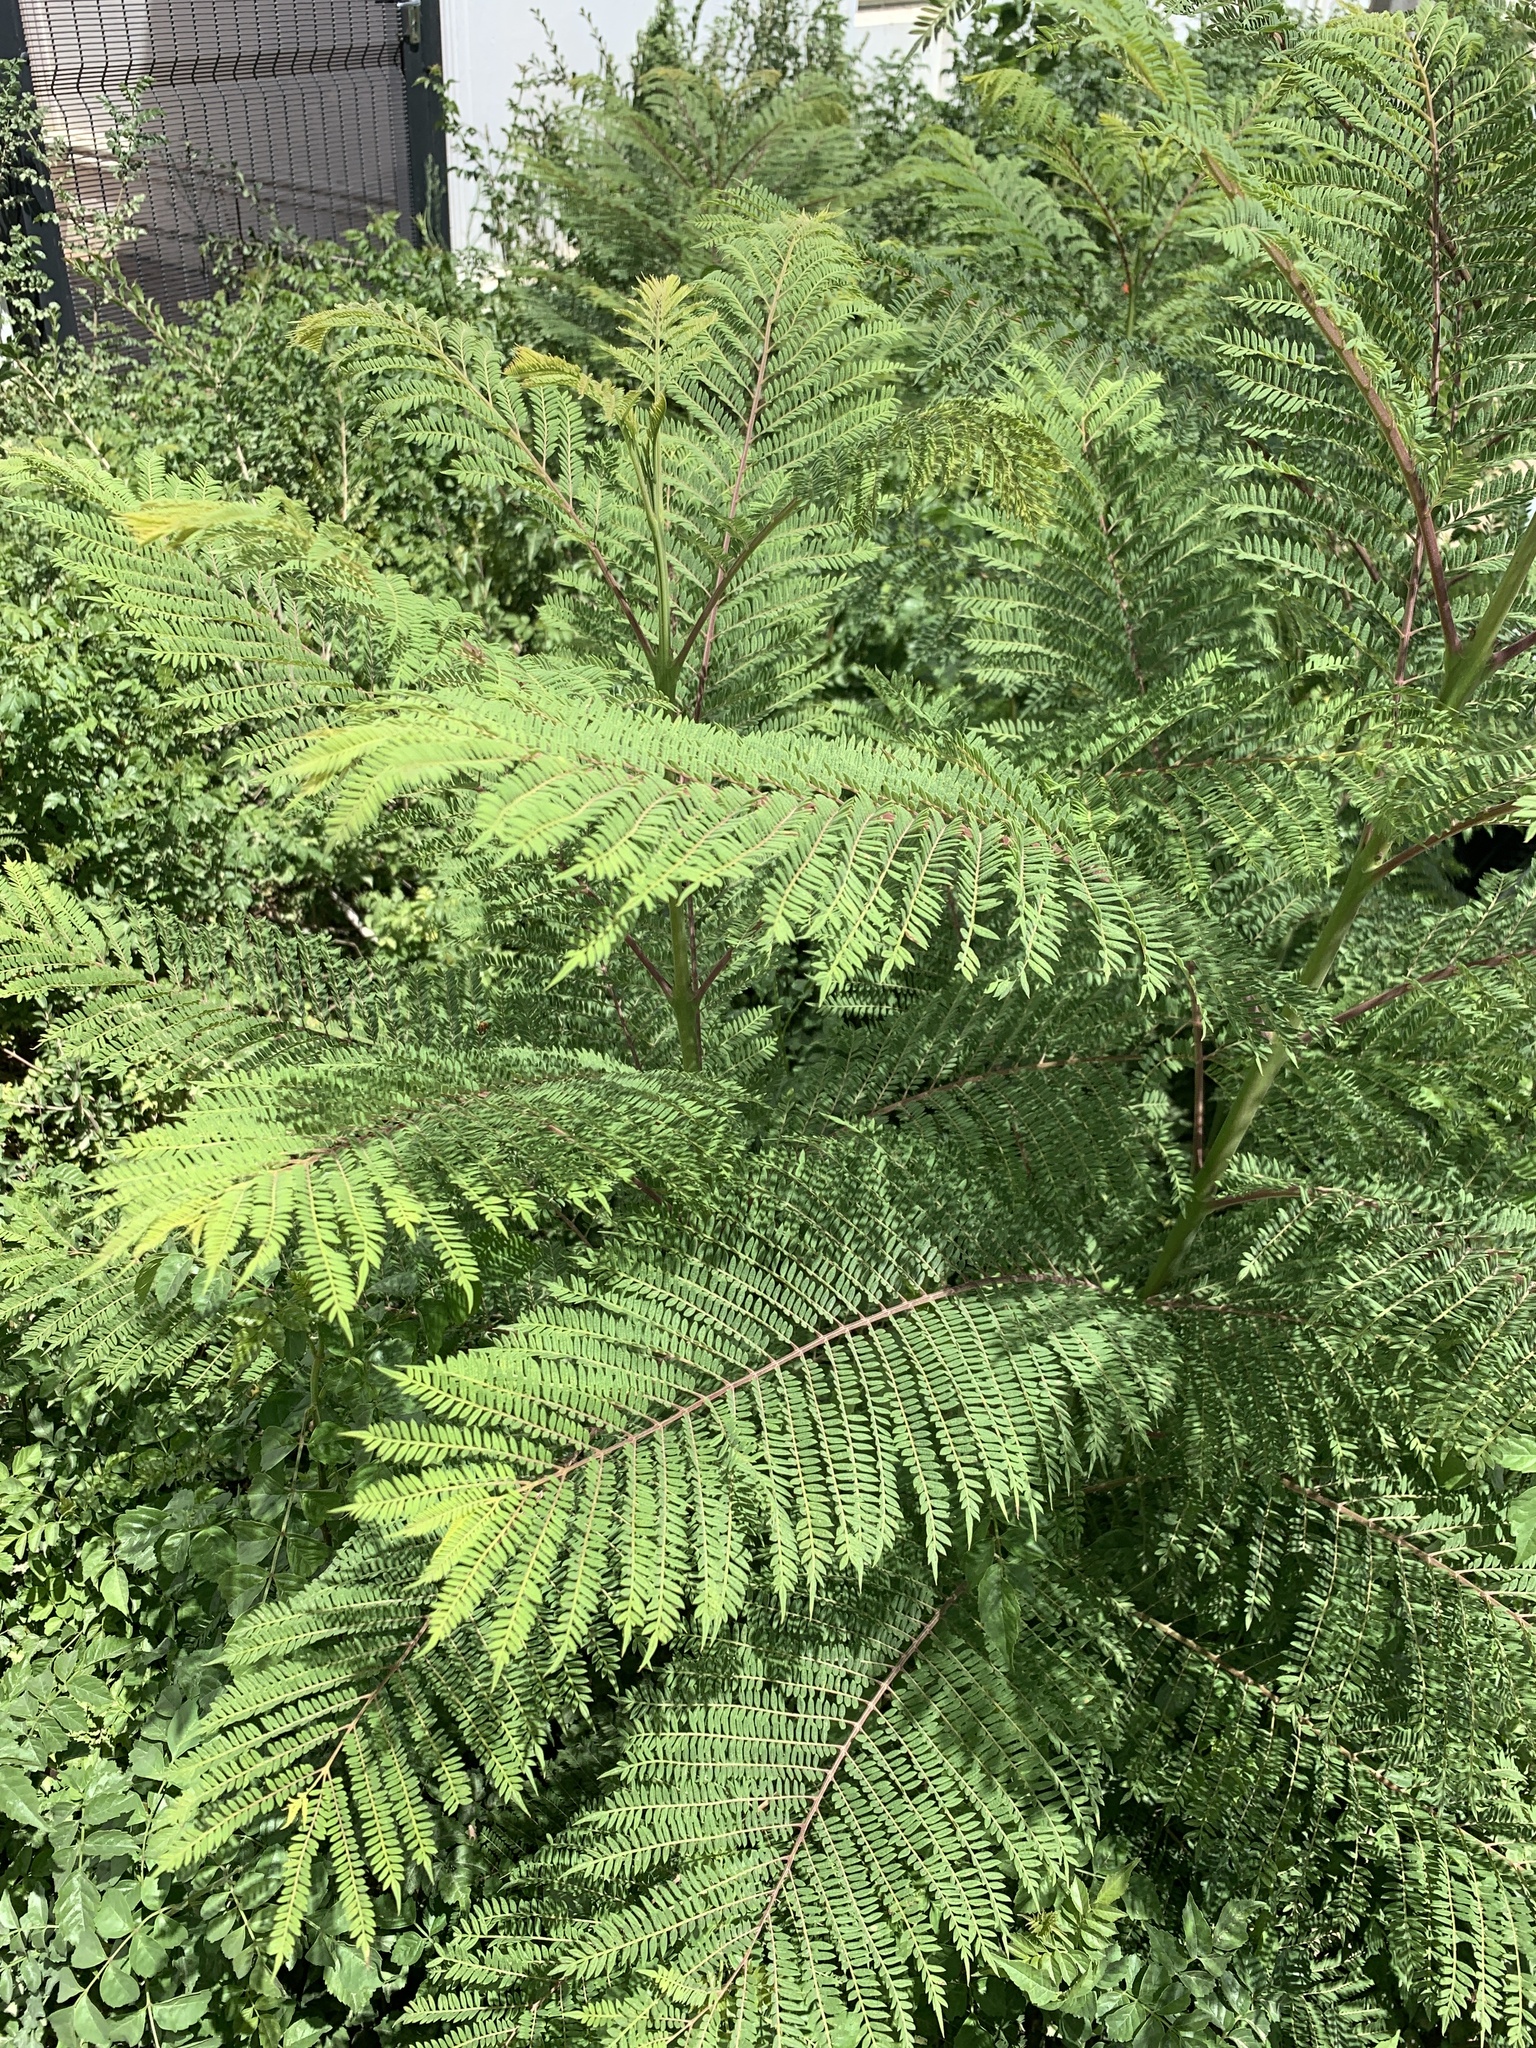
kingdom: Plantae
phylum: Tracheophyta
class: Magnoliopsida
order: Lamiales
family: Bignoniaceae
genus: Jacaranda
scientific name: Jacaranda mimosifolia
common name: Black poui
